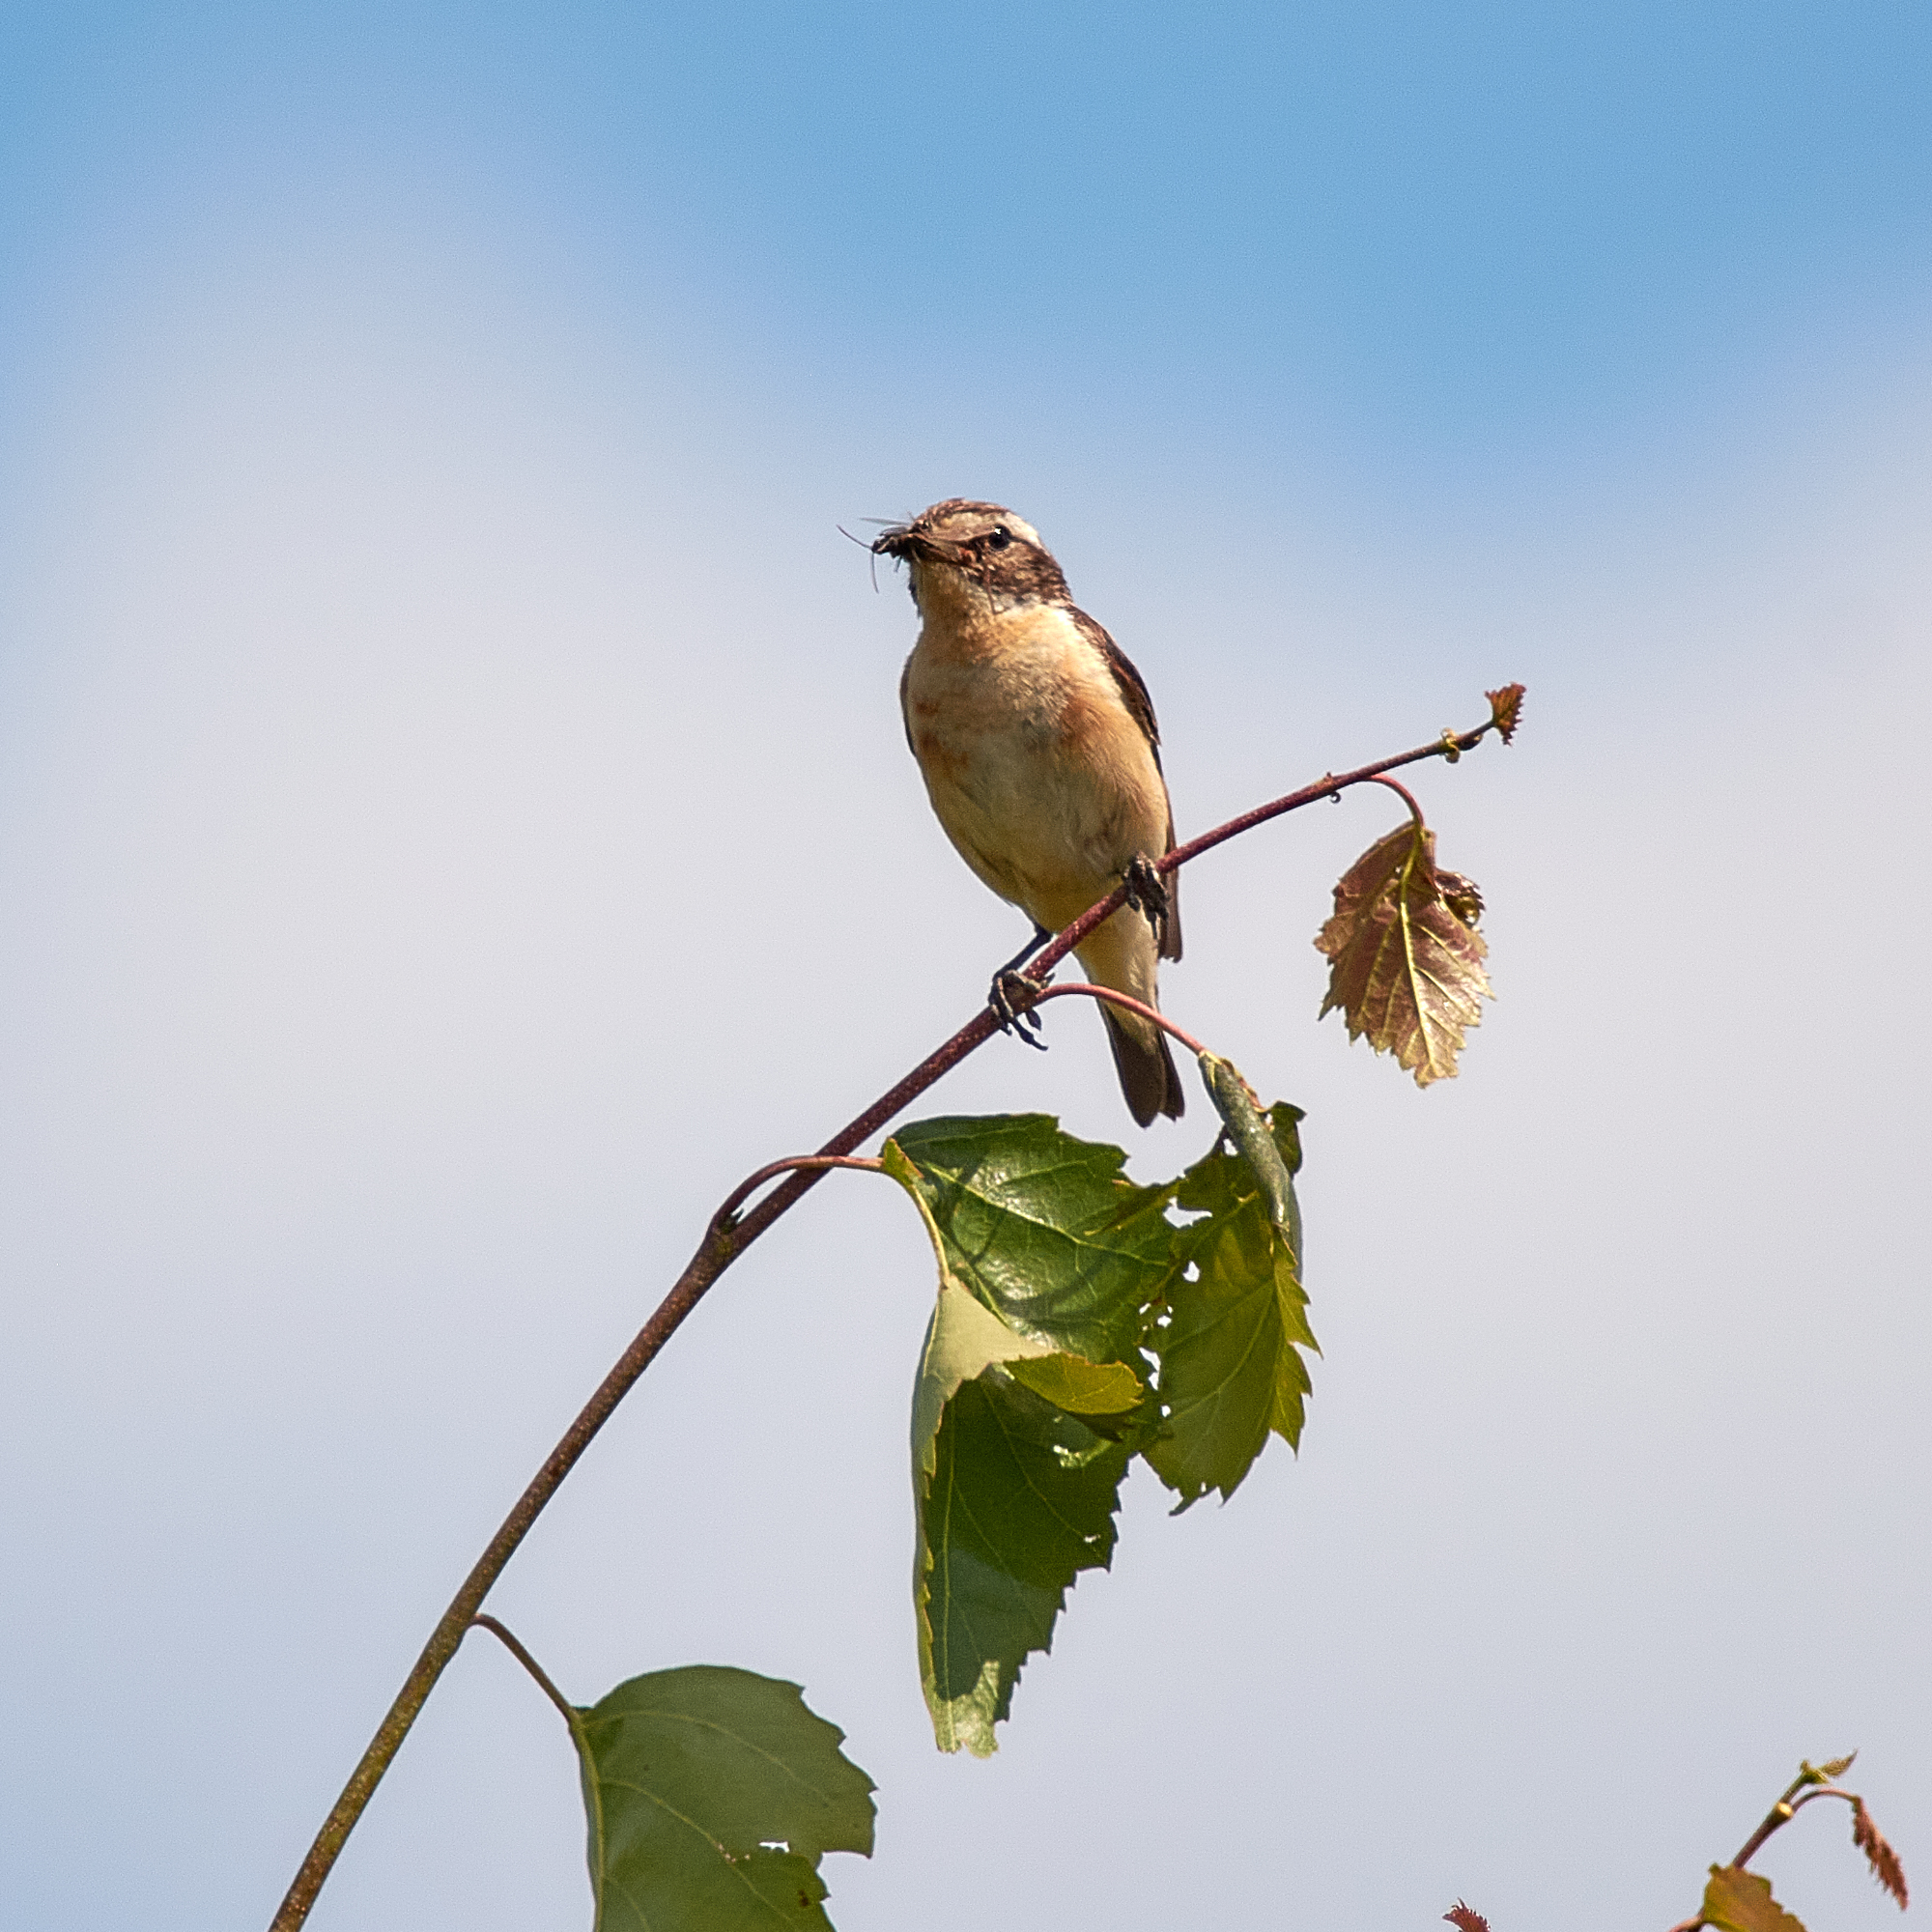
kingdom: Animalia
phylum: Chordata
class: Aves
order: Passeriformes
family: Muscicapidae
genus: Saxicola
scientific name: Saxicola rubetra
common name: Whinchat
